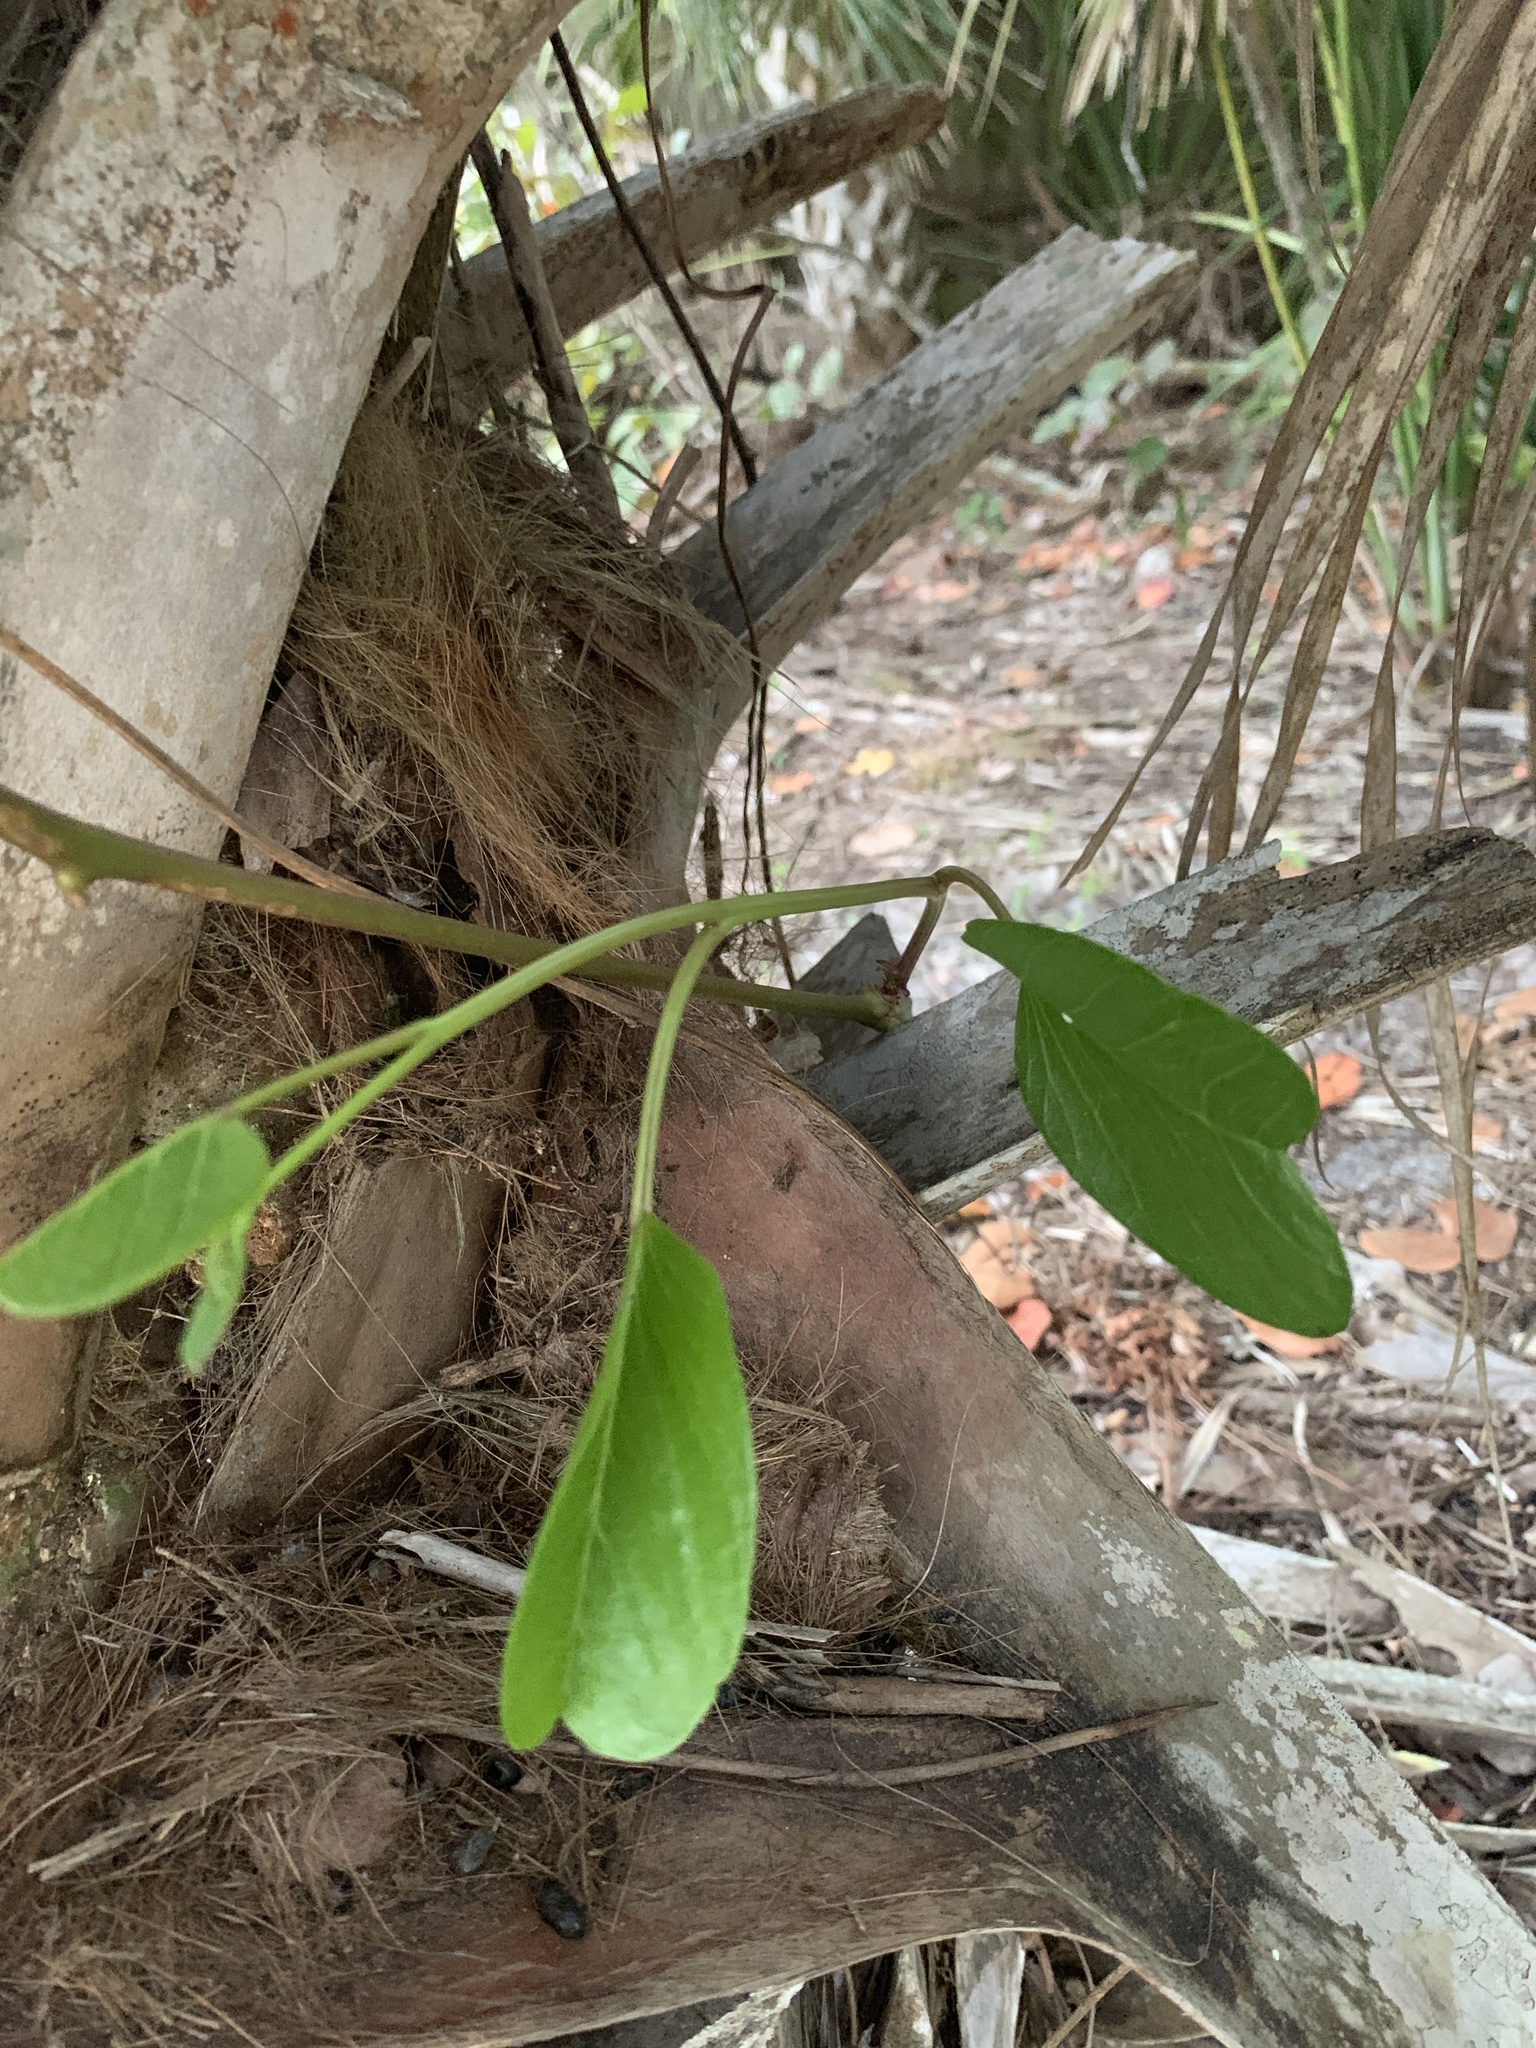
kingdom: Plantae
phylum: Tracheophyta
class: Magnoliopsida
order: Solanales
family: Convolvulaceae
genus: Ipomoea
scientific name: Ipomoea pes-caprae
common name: Beach morning glory
